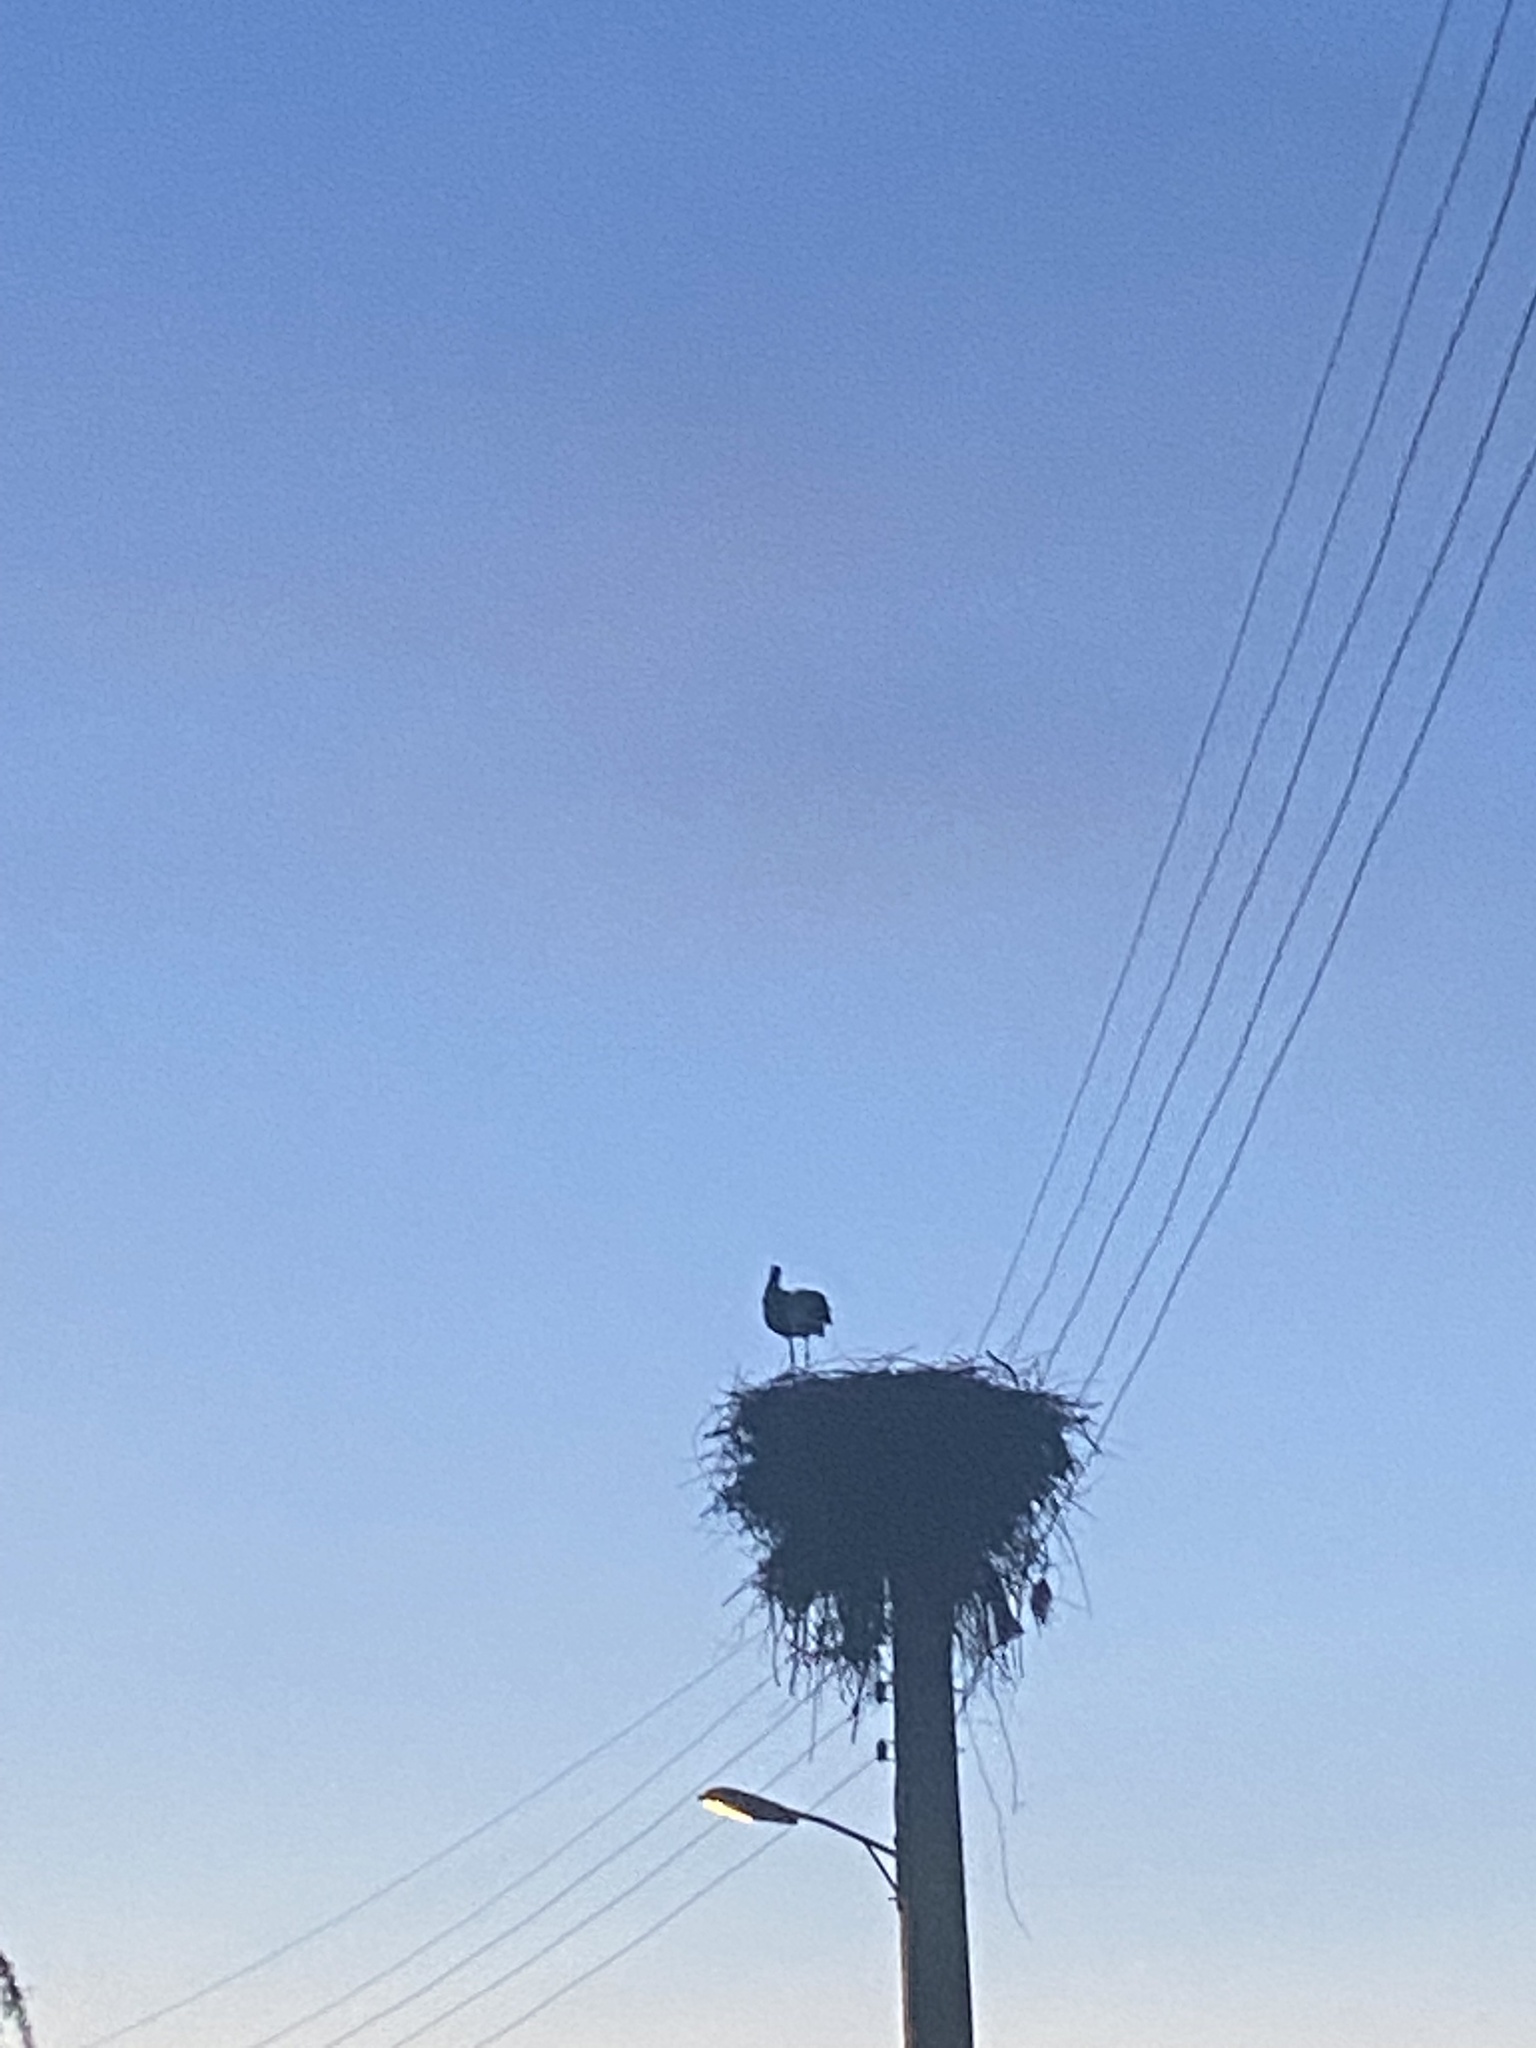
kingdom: Animalia
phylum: Chordata
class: Aves
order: Ciconiiformes
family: Ciconiidae
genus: Ciconia
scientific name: Ciconia ciconia
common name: White stork
